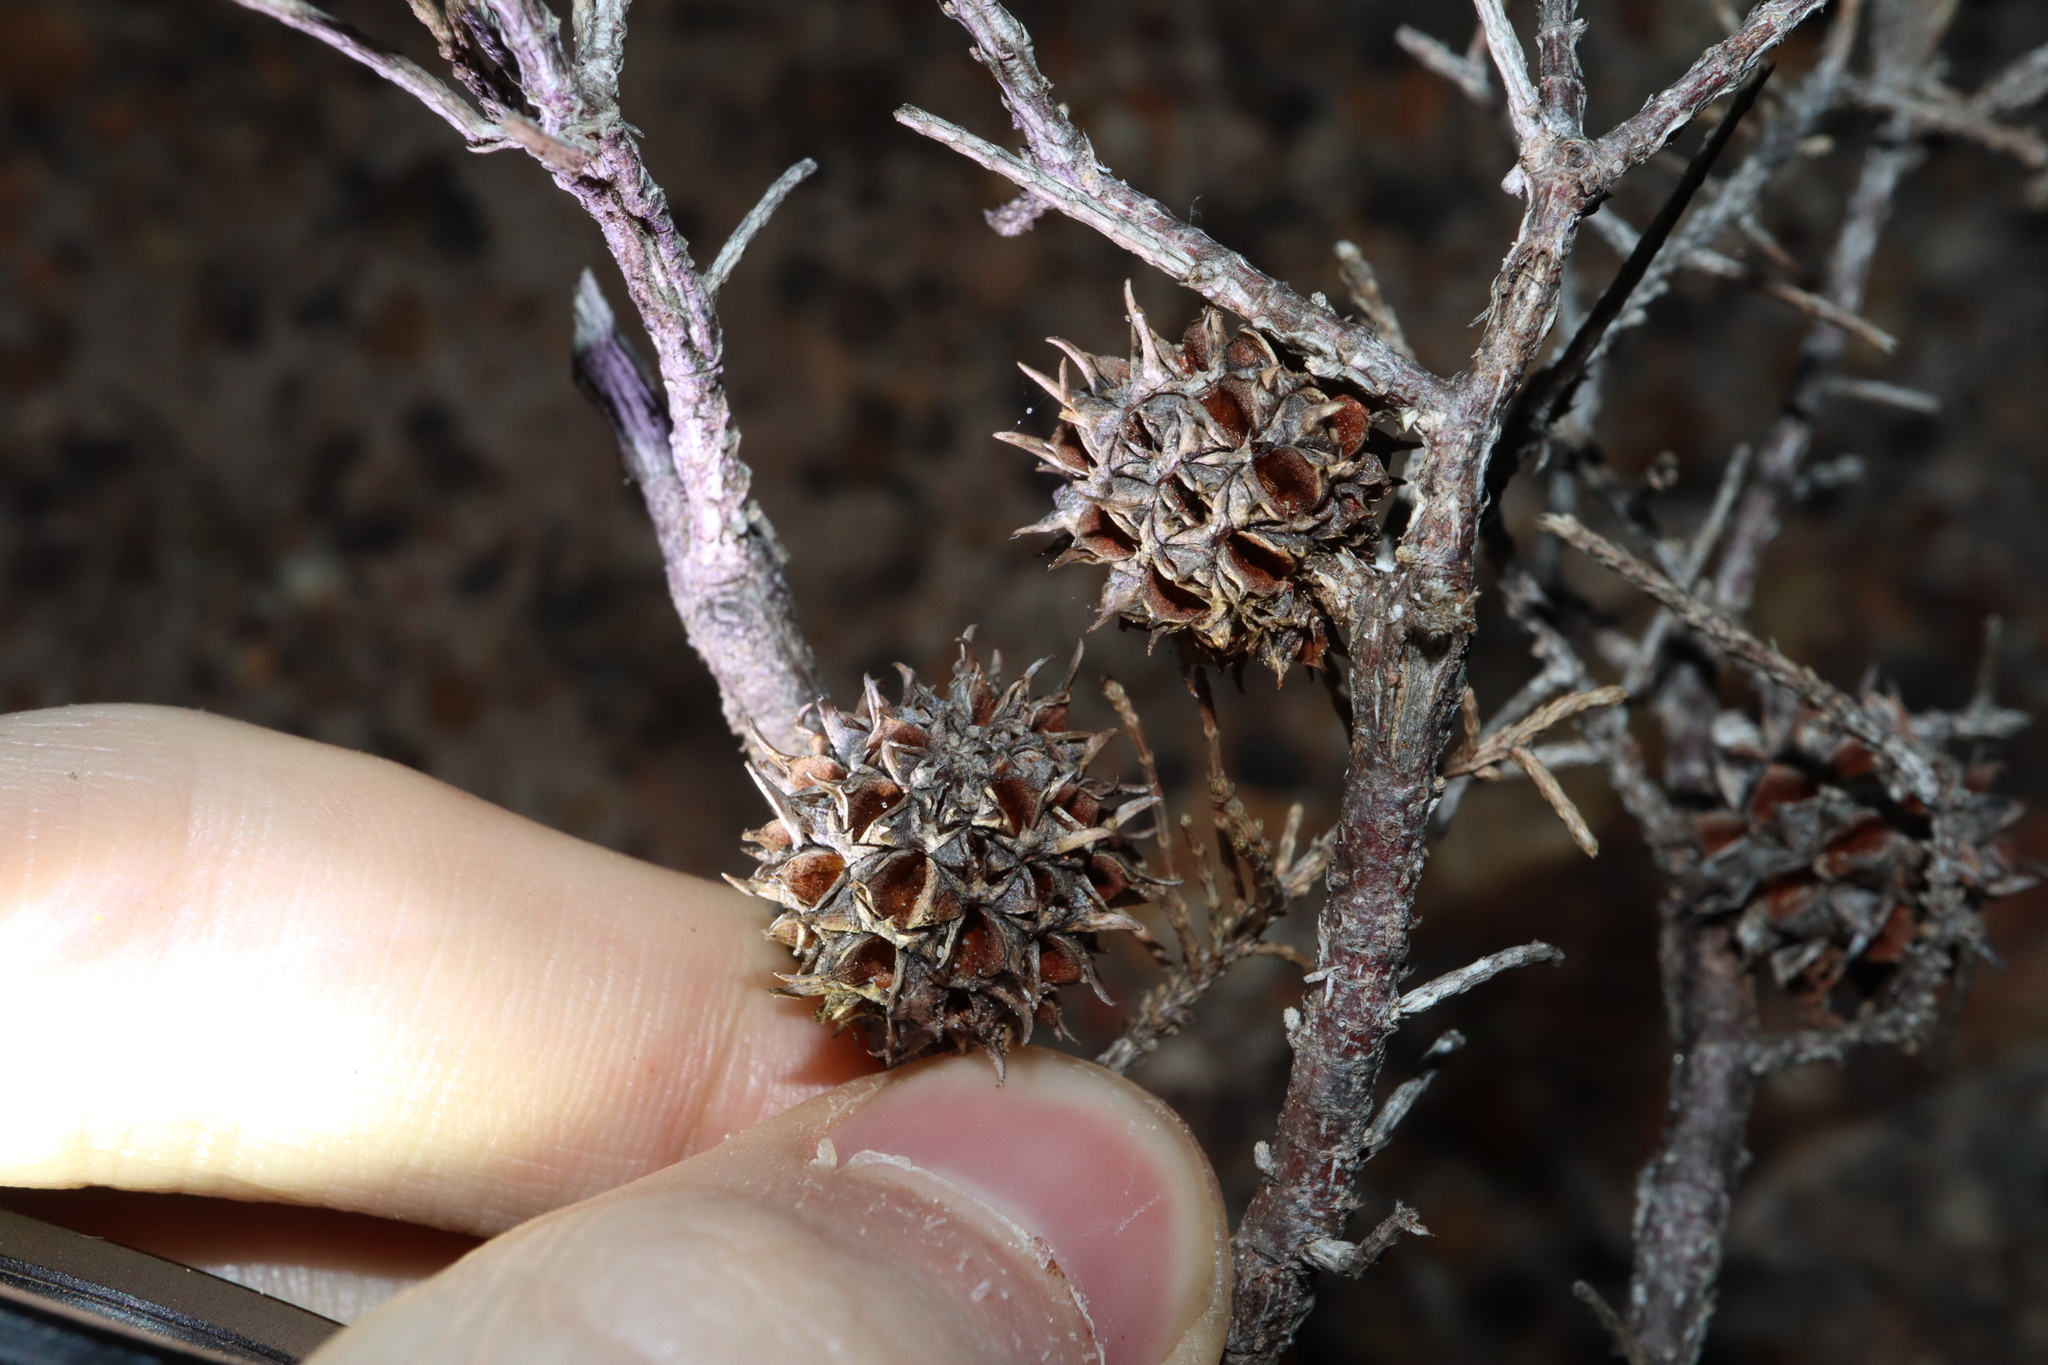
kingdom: Plantae
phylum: Tracheophyta
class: Magnoliopsida
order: Fagales
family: Casuarinaceae
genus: Allocasuarina
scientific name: Allocasuarina thuyoides
